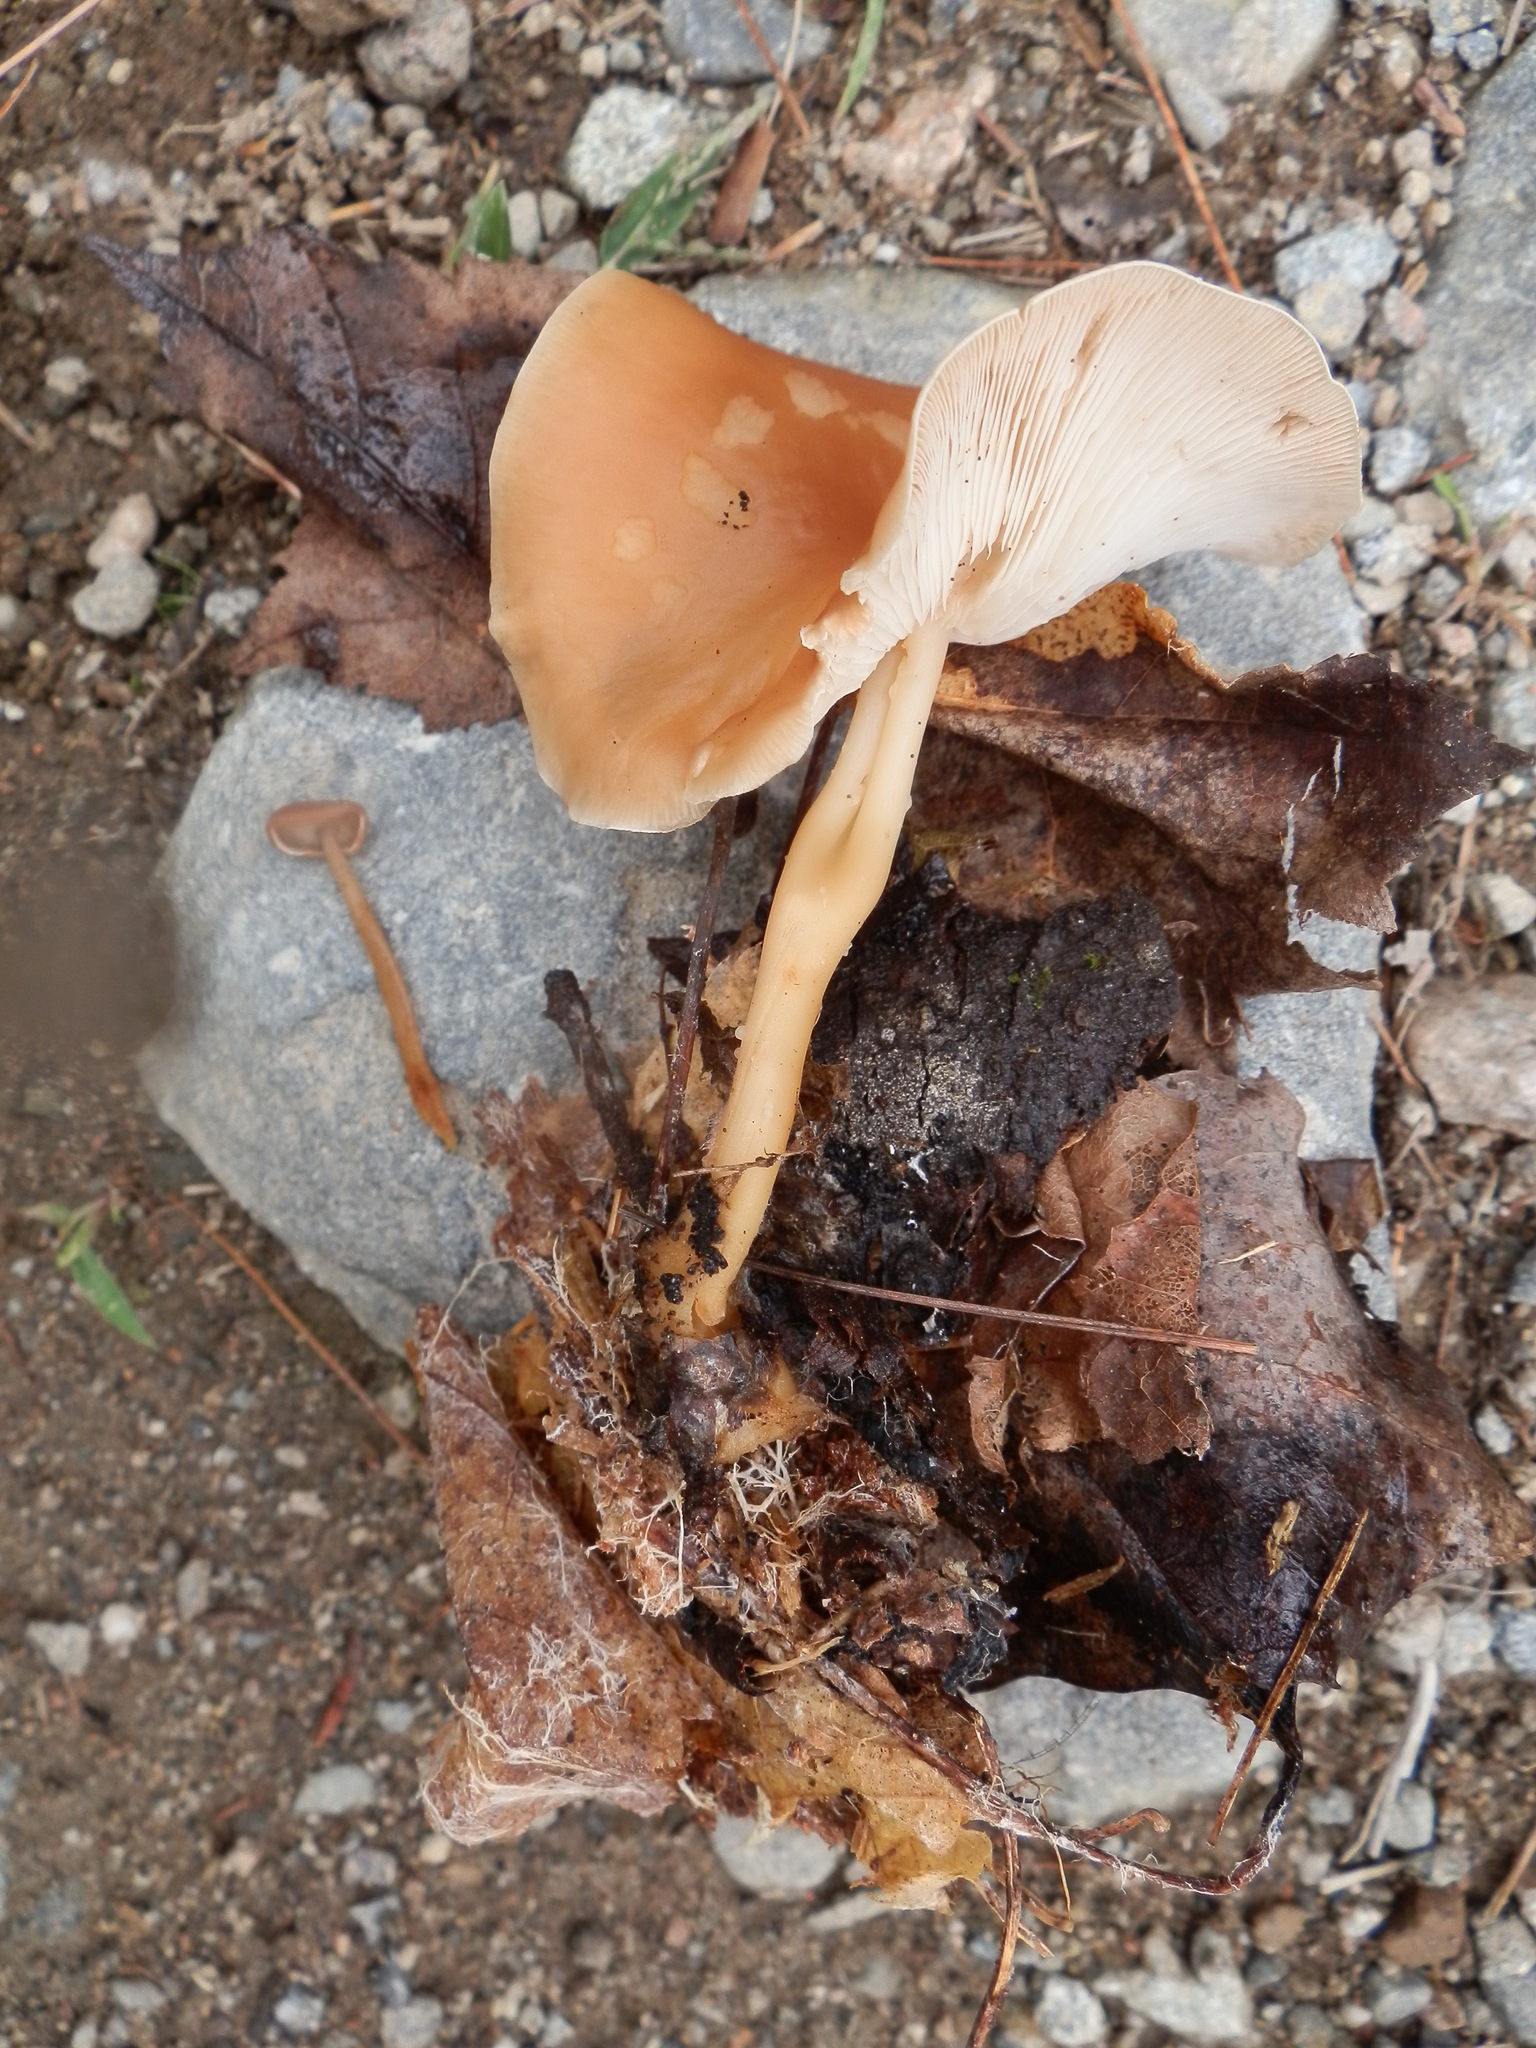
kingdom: Fungi
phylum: Basidiomycota
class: Agaricomycetes
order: Agaricales
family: Omphalotaceae
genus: Gymnopus
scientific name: Gymnopus dryophilus
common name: Penny top
